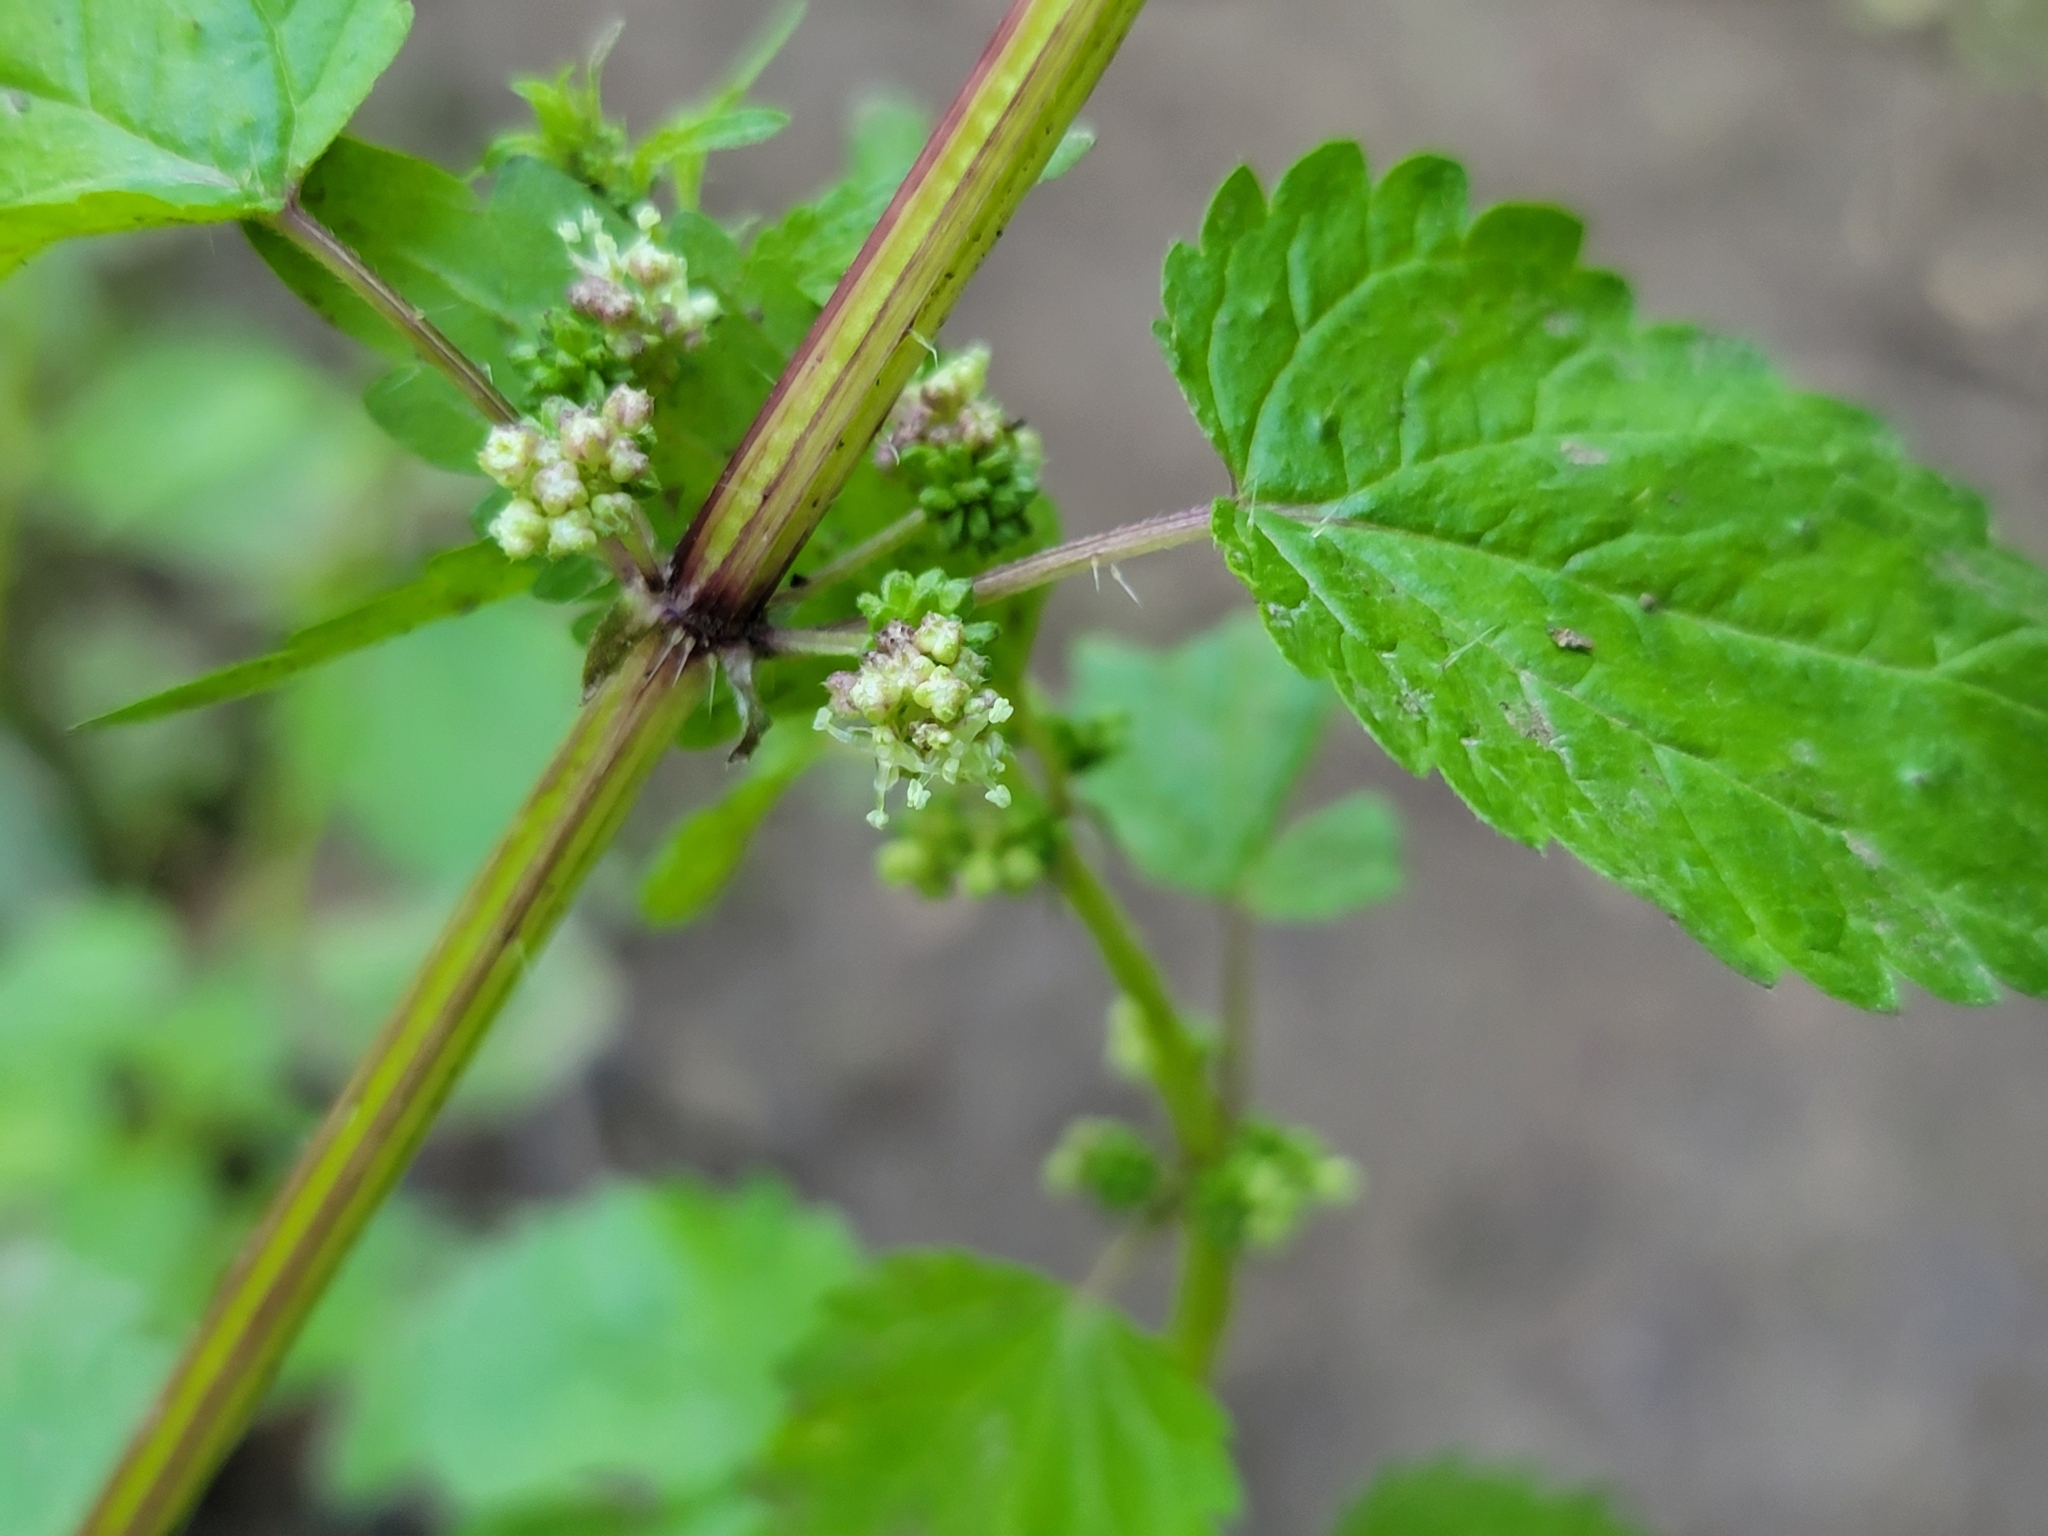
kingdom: Plantae
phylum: Tracheophyta
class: Magnoliopsida
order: Rosales
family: Urticaceae
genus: Urtica
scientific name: Urtica chamaedryoides
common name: Heart-leaf nettle
